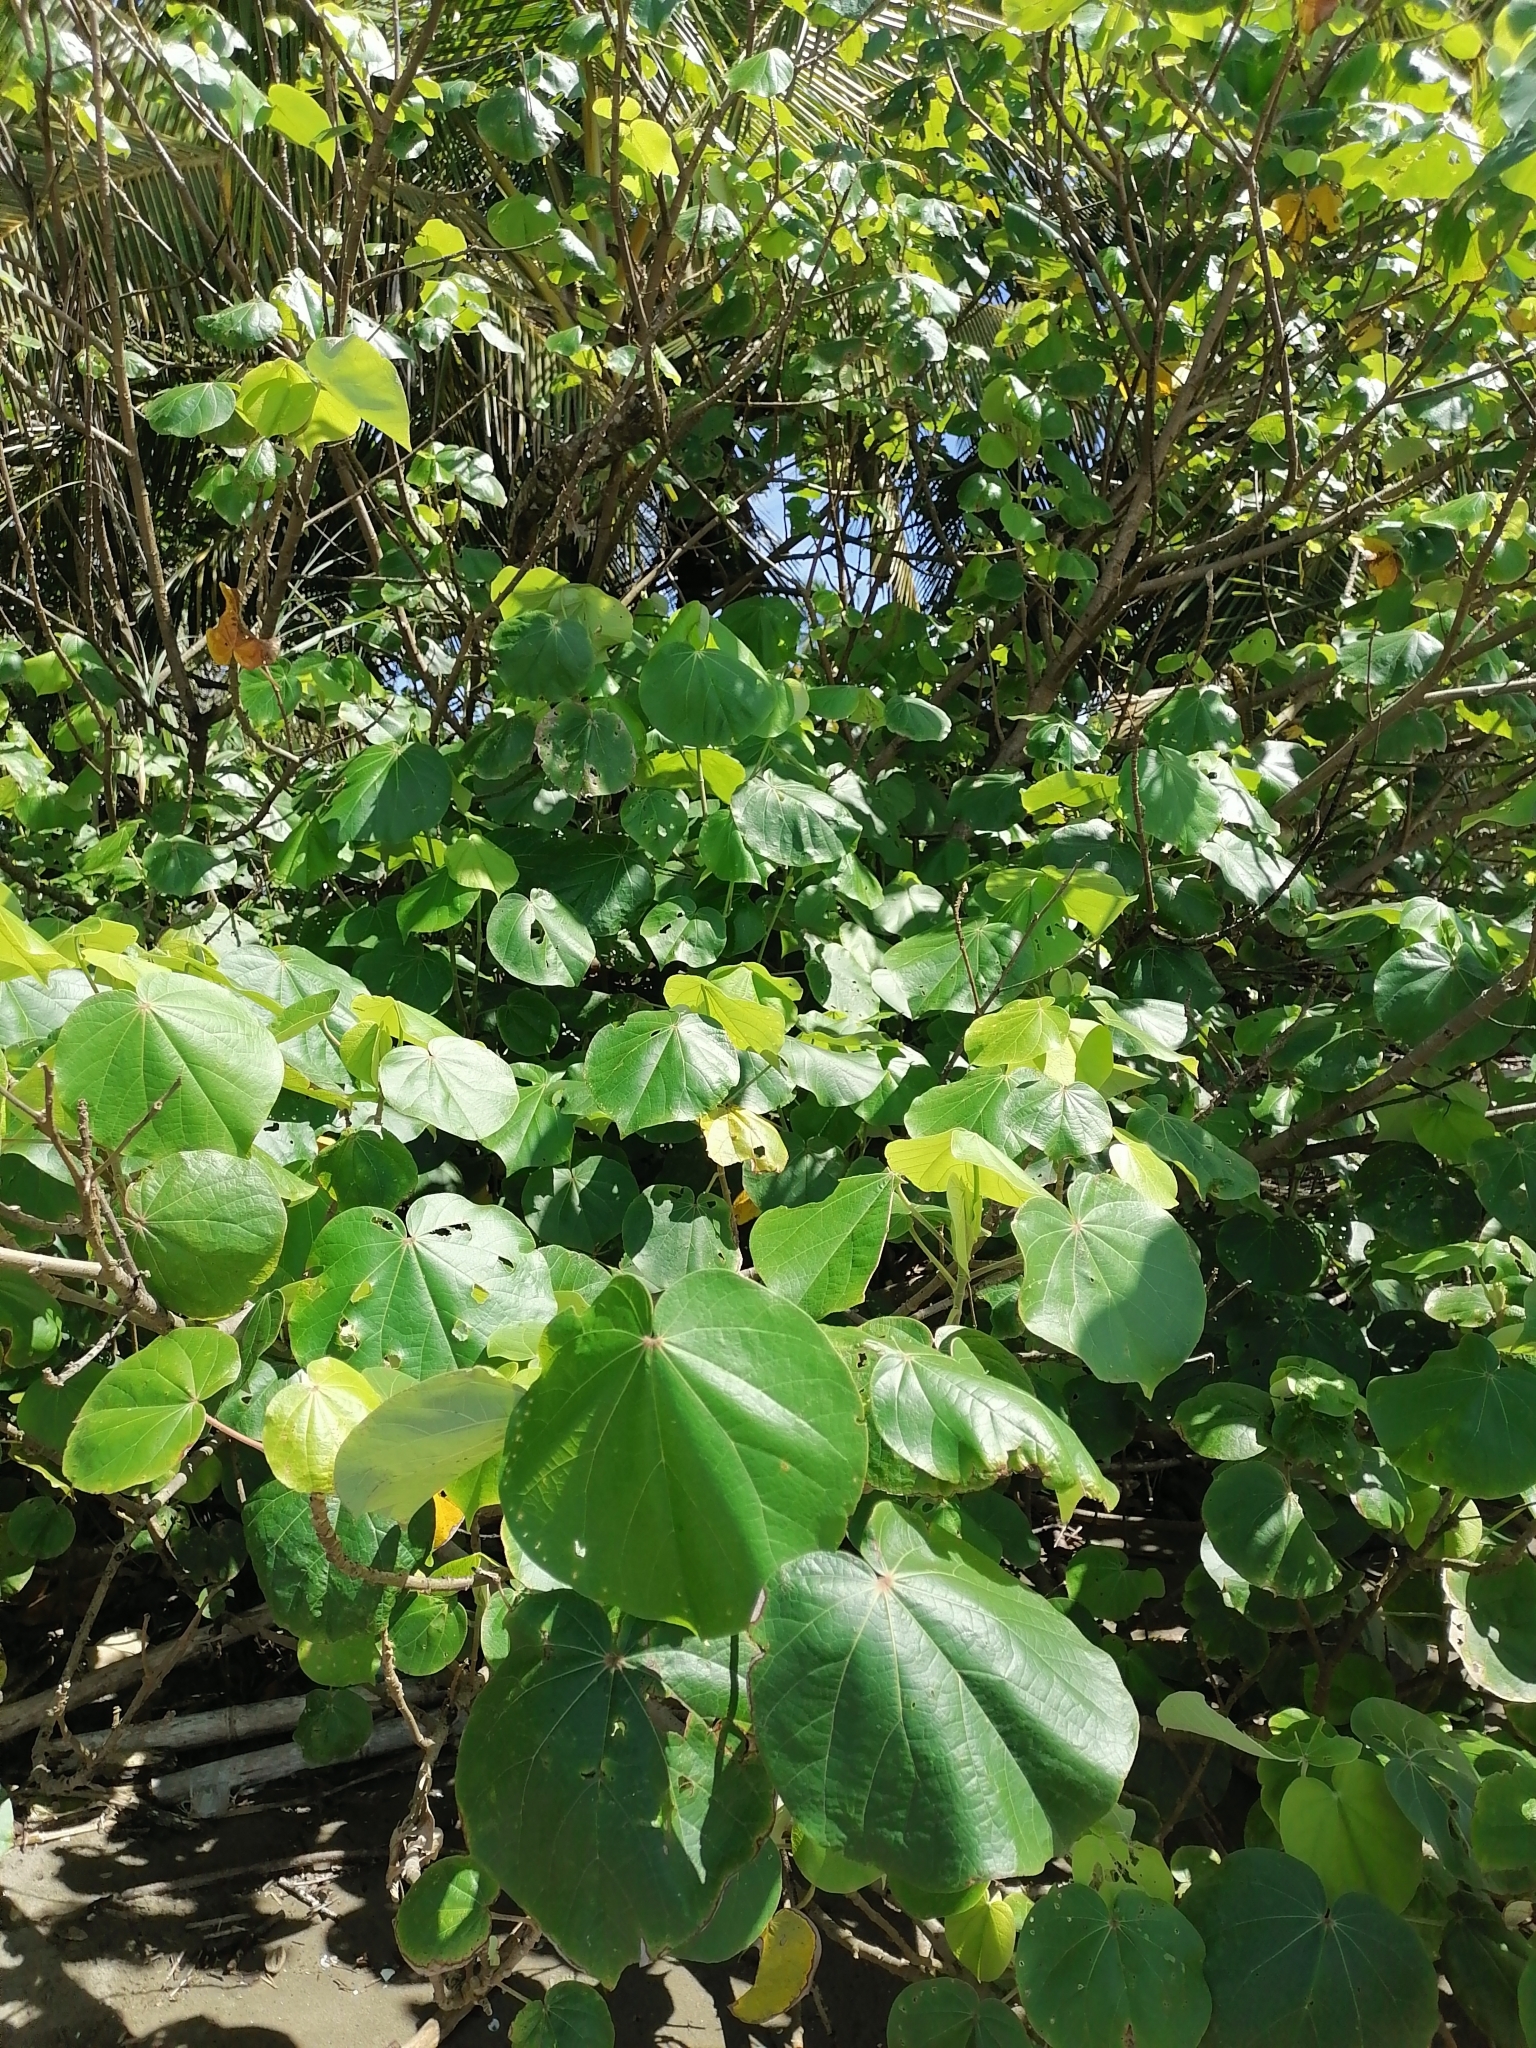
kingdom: Plantae
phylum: Tracheophyta
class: Magnoliopsida
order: Malvales
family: Malvaceae
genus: Talipariti
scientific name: Talipariti tiliaceum
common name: Sea hibiscus
